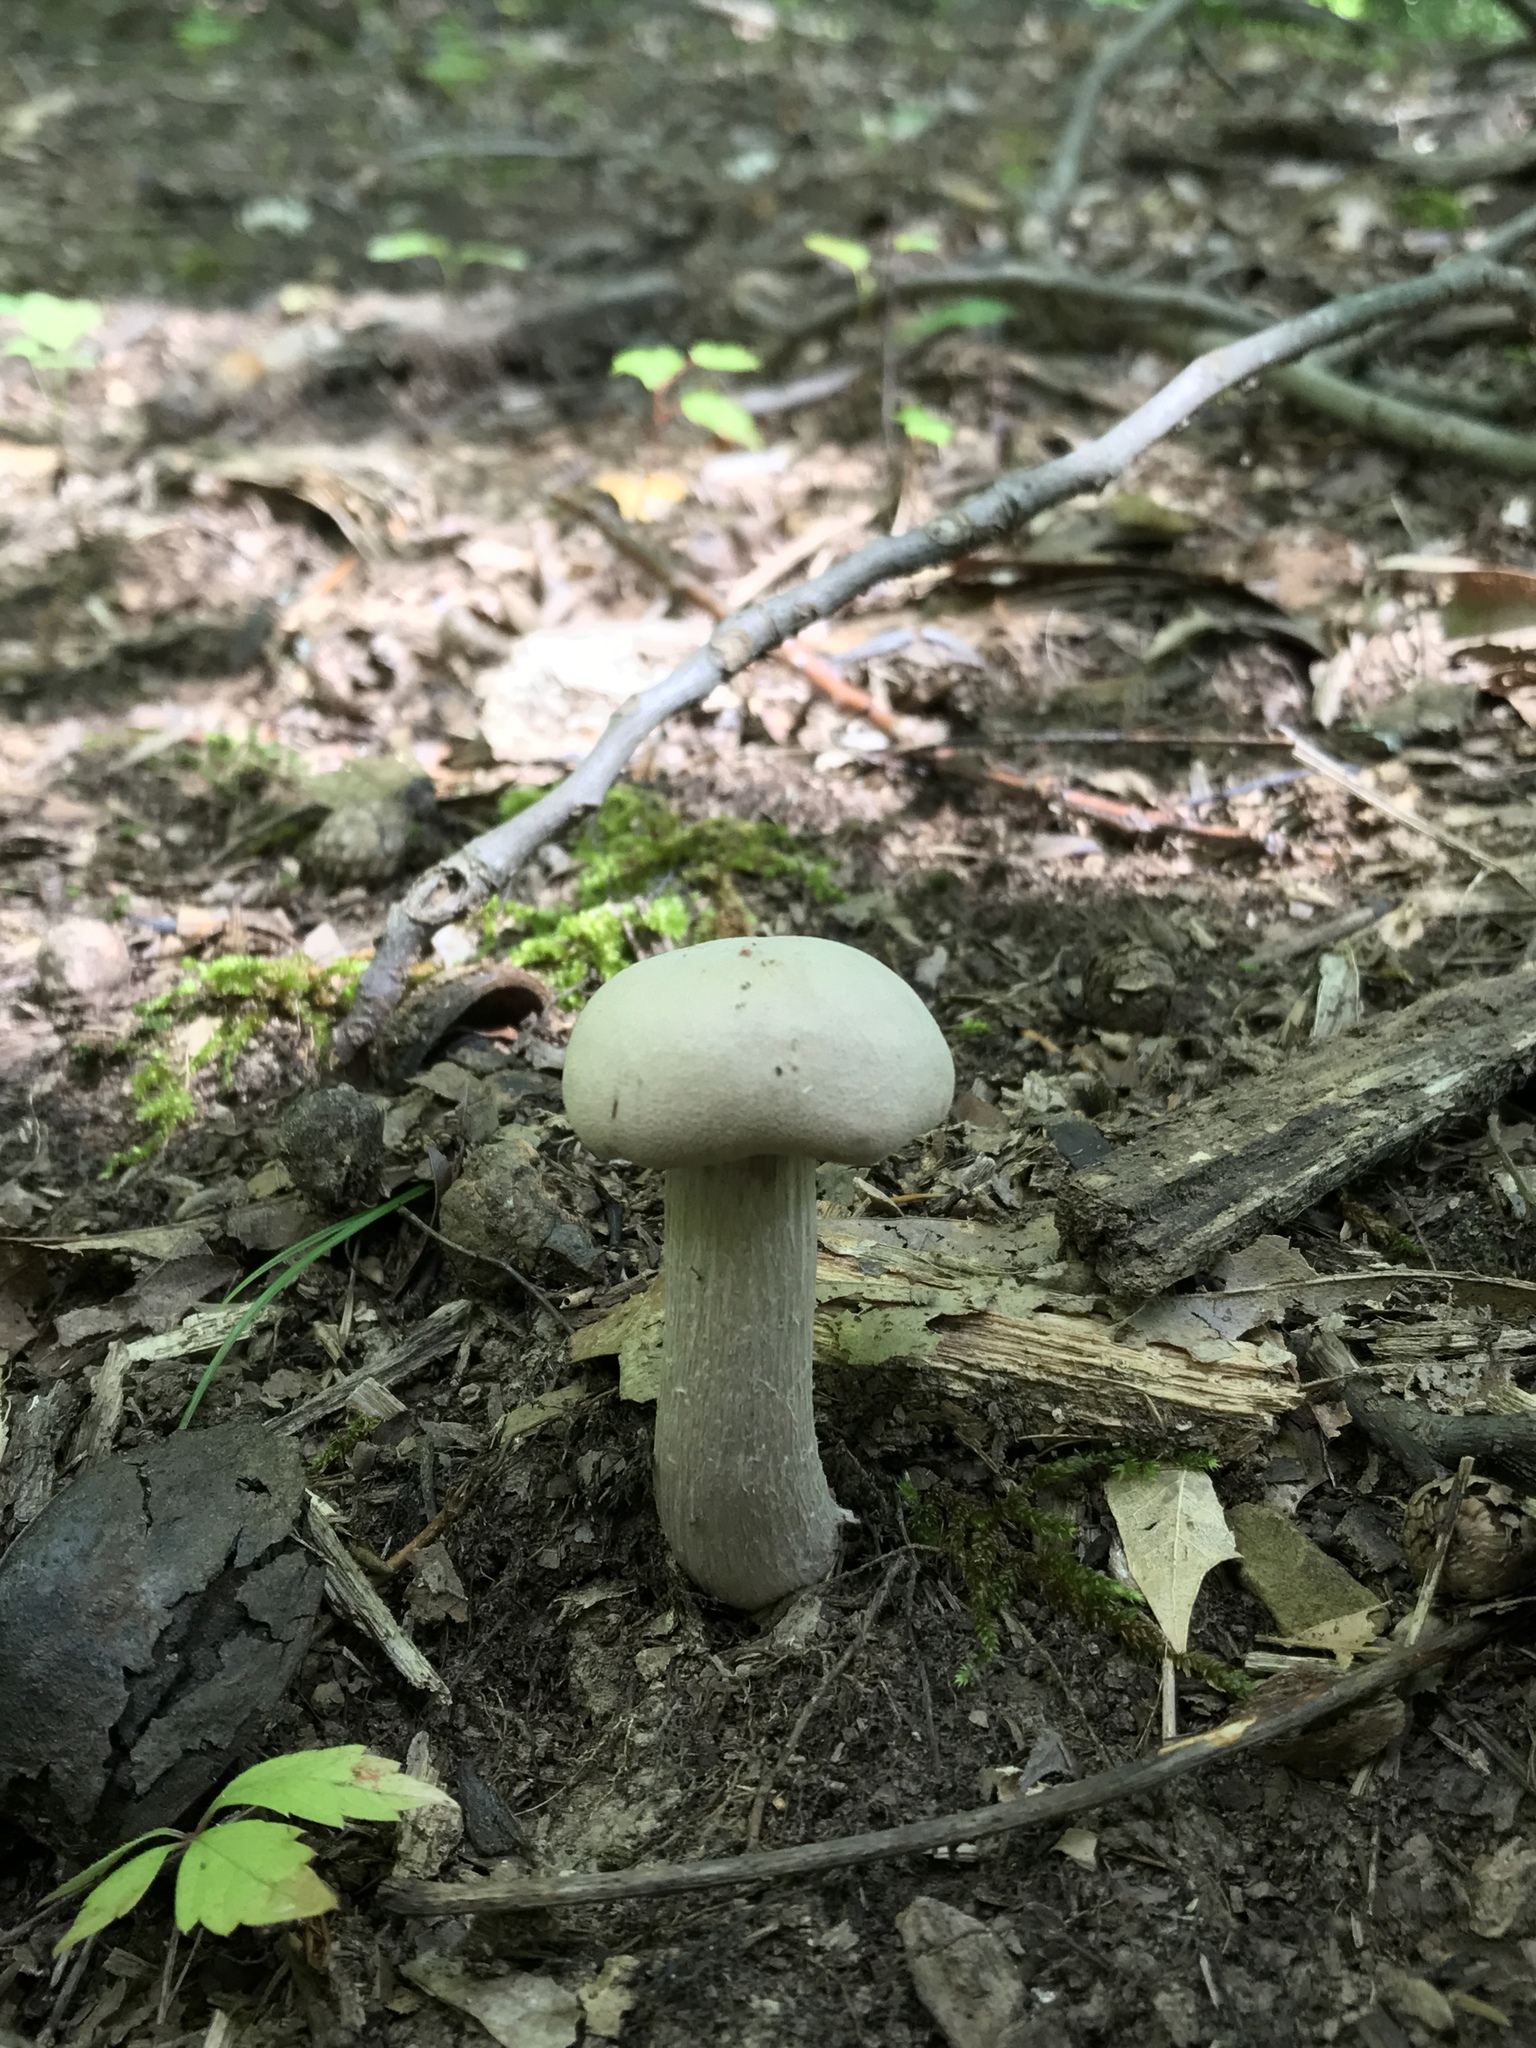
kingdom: Fungi
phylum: Basidiomycota
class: Agaricomycetes
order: Agaricales
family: Hydnangiaceae
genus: Laccaria
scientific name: Laccaria ochropurpurea
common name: Purple laccaria
